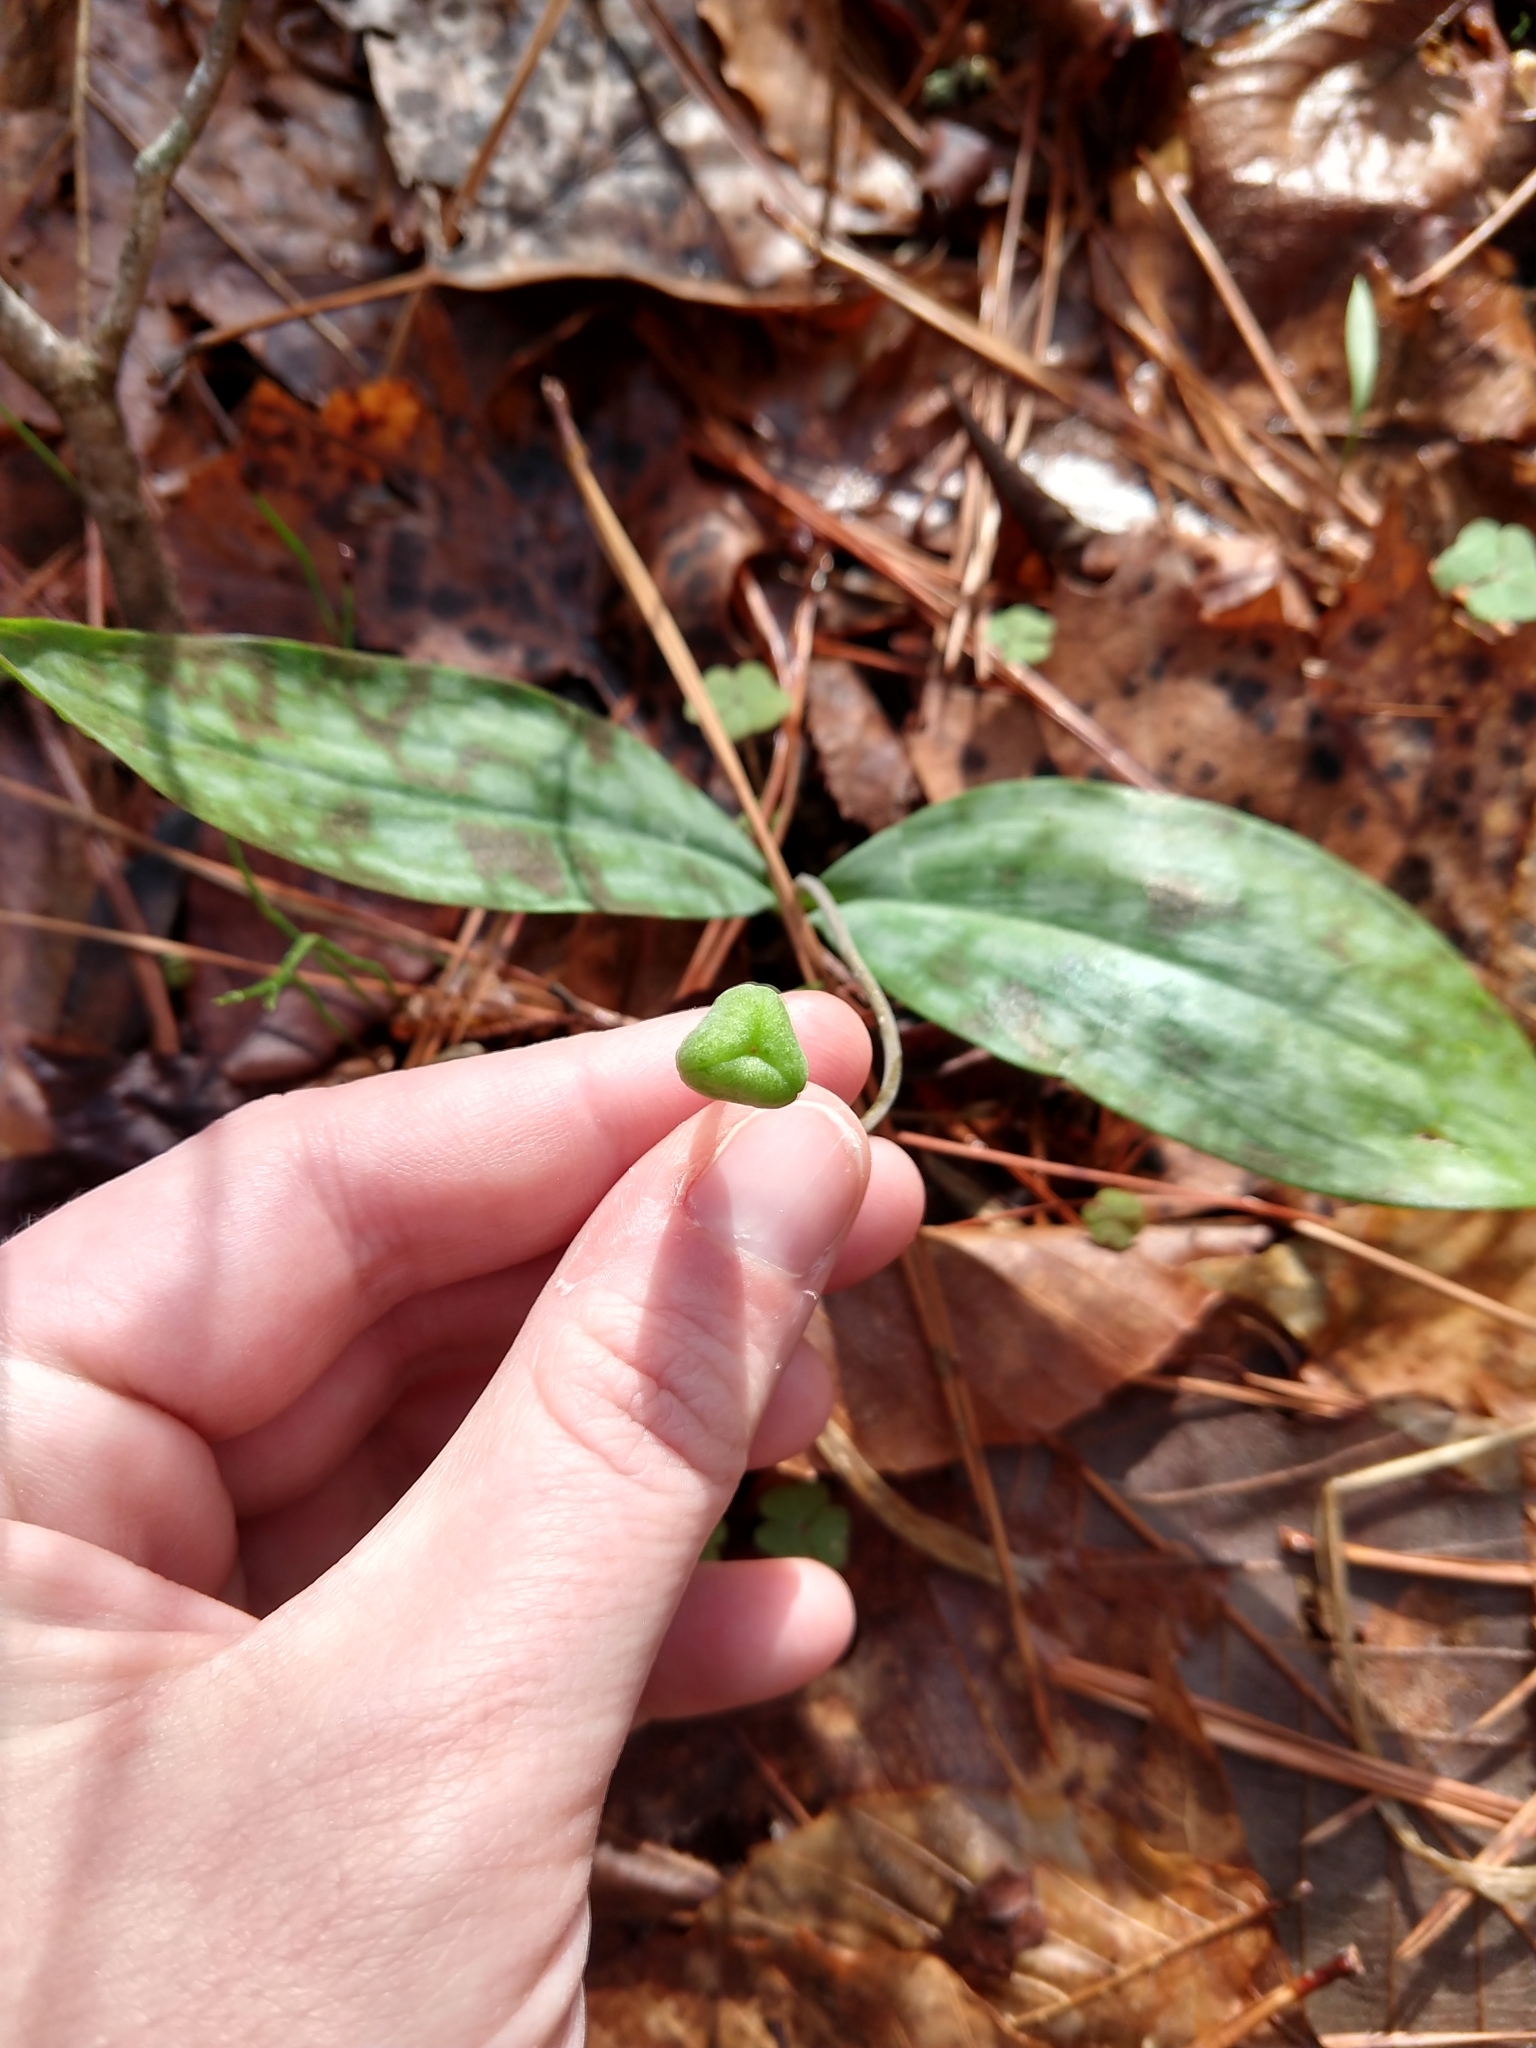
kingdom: Plantae
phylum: Tracheophyta
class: Liliopsida
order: Liliales
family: Liliaceae
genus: Erythronium
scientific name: Erythronium umbilicatum
